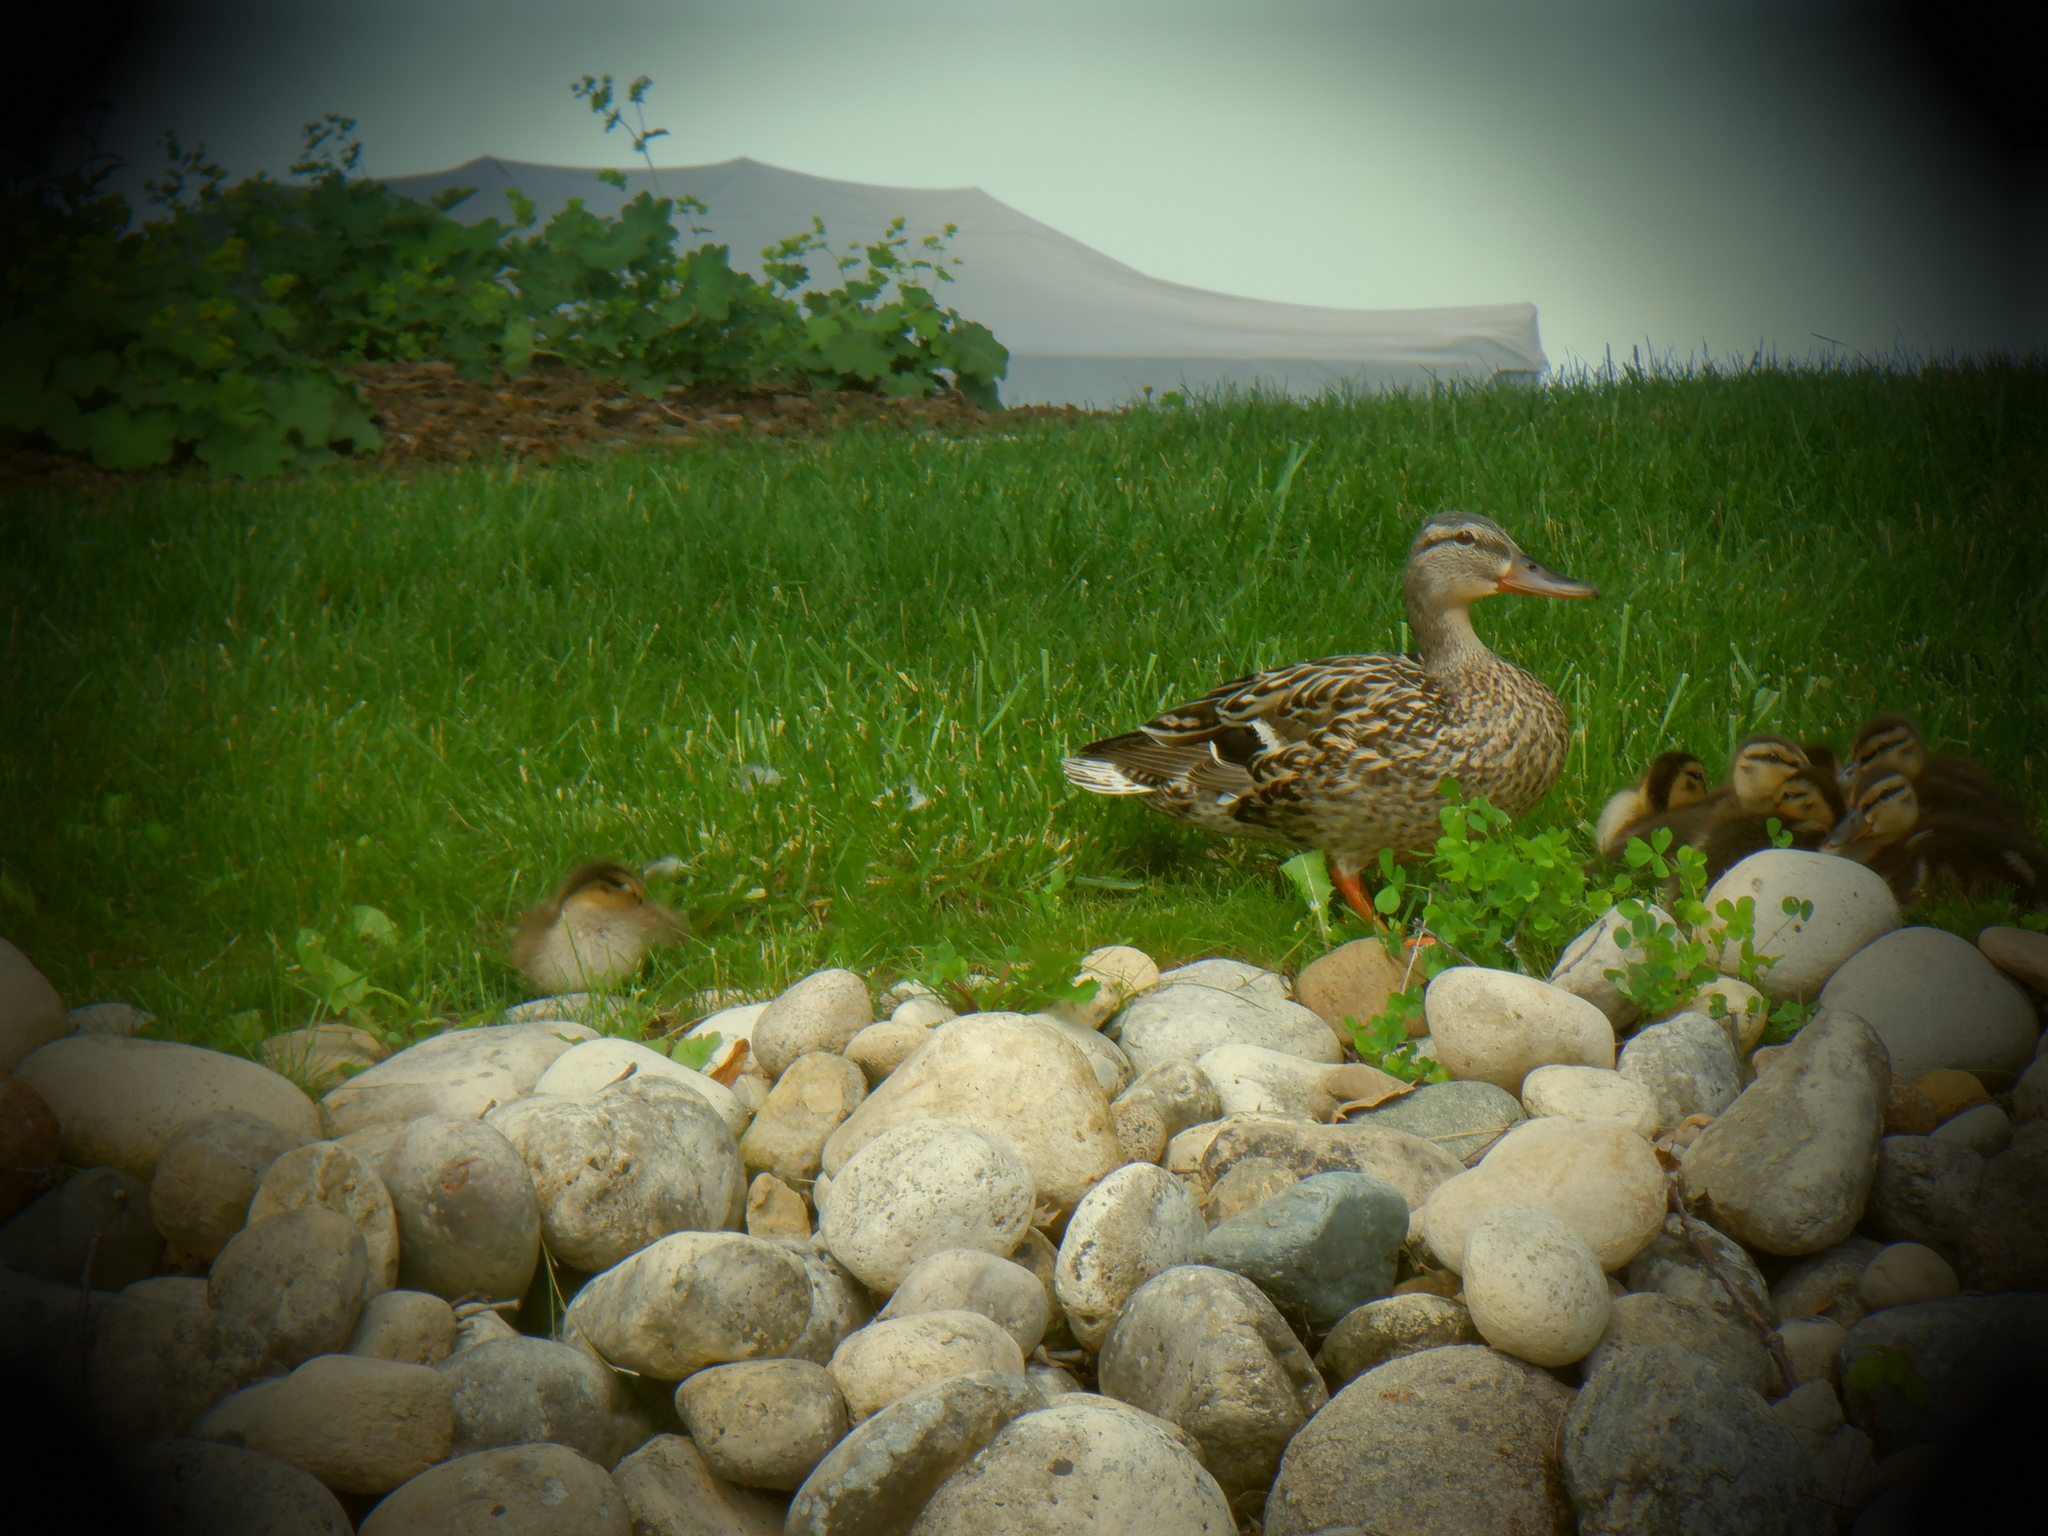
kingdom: Animalia
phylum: Chordata
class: Aves
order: Anseriformes
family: Anatidae
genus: Anas
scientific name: Anas platyrhynchos
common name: Mallard
